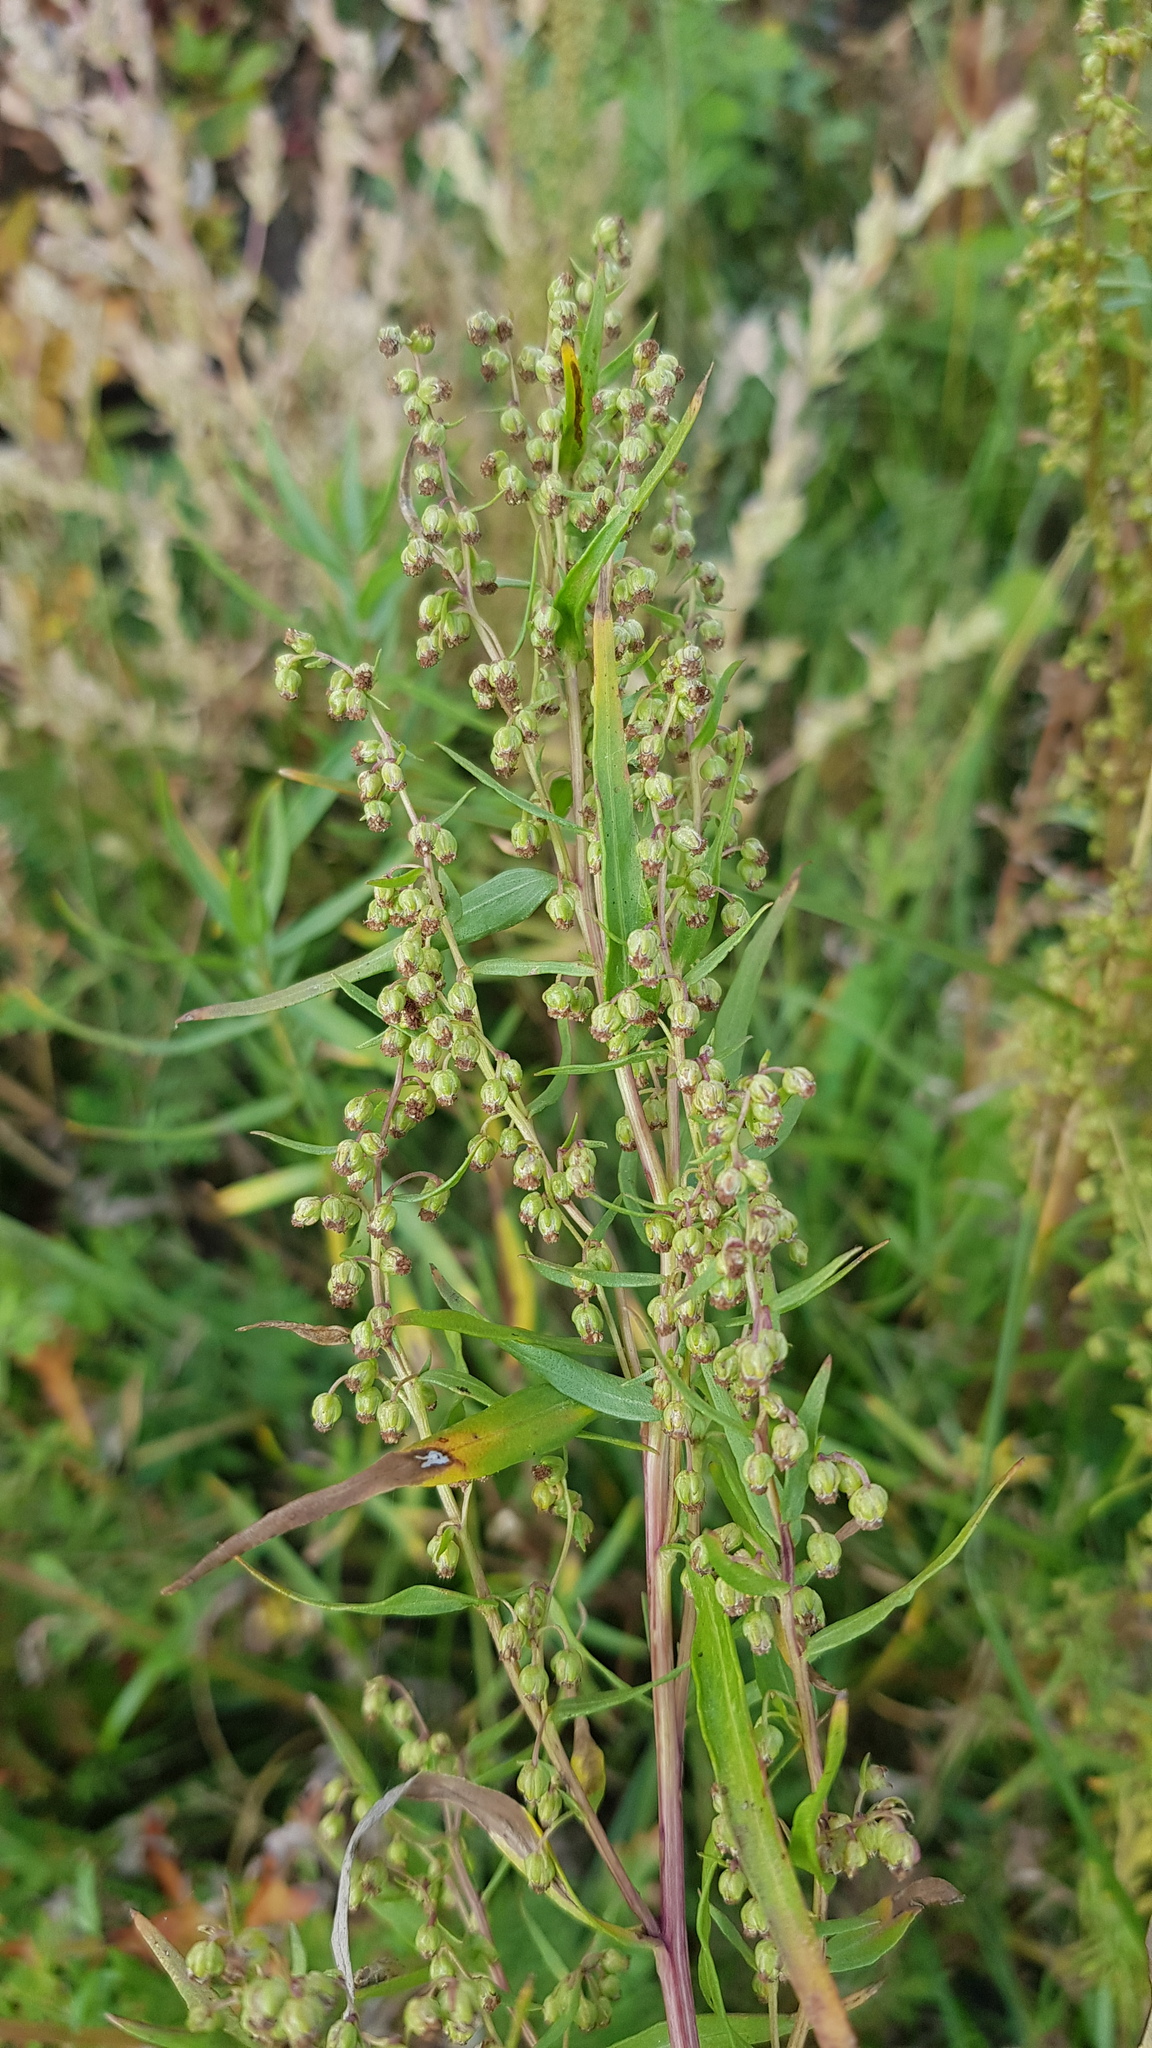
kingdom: Plantae
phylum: Tracheophyta
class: Magnoliopsida
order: Asterales
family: Asteraceae
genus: Artemisia
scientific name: Artemisia dracunculus
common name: Tarragon
